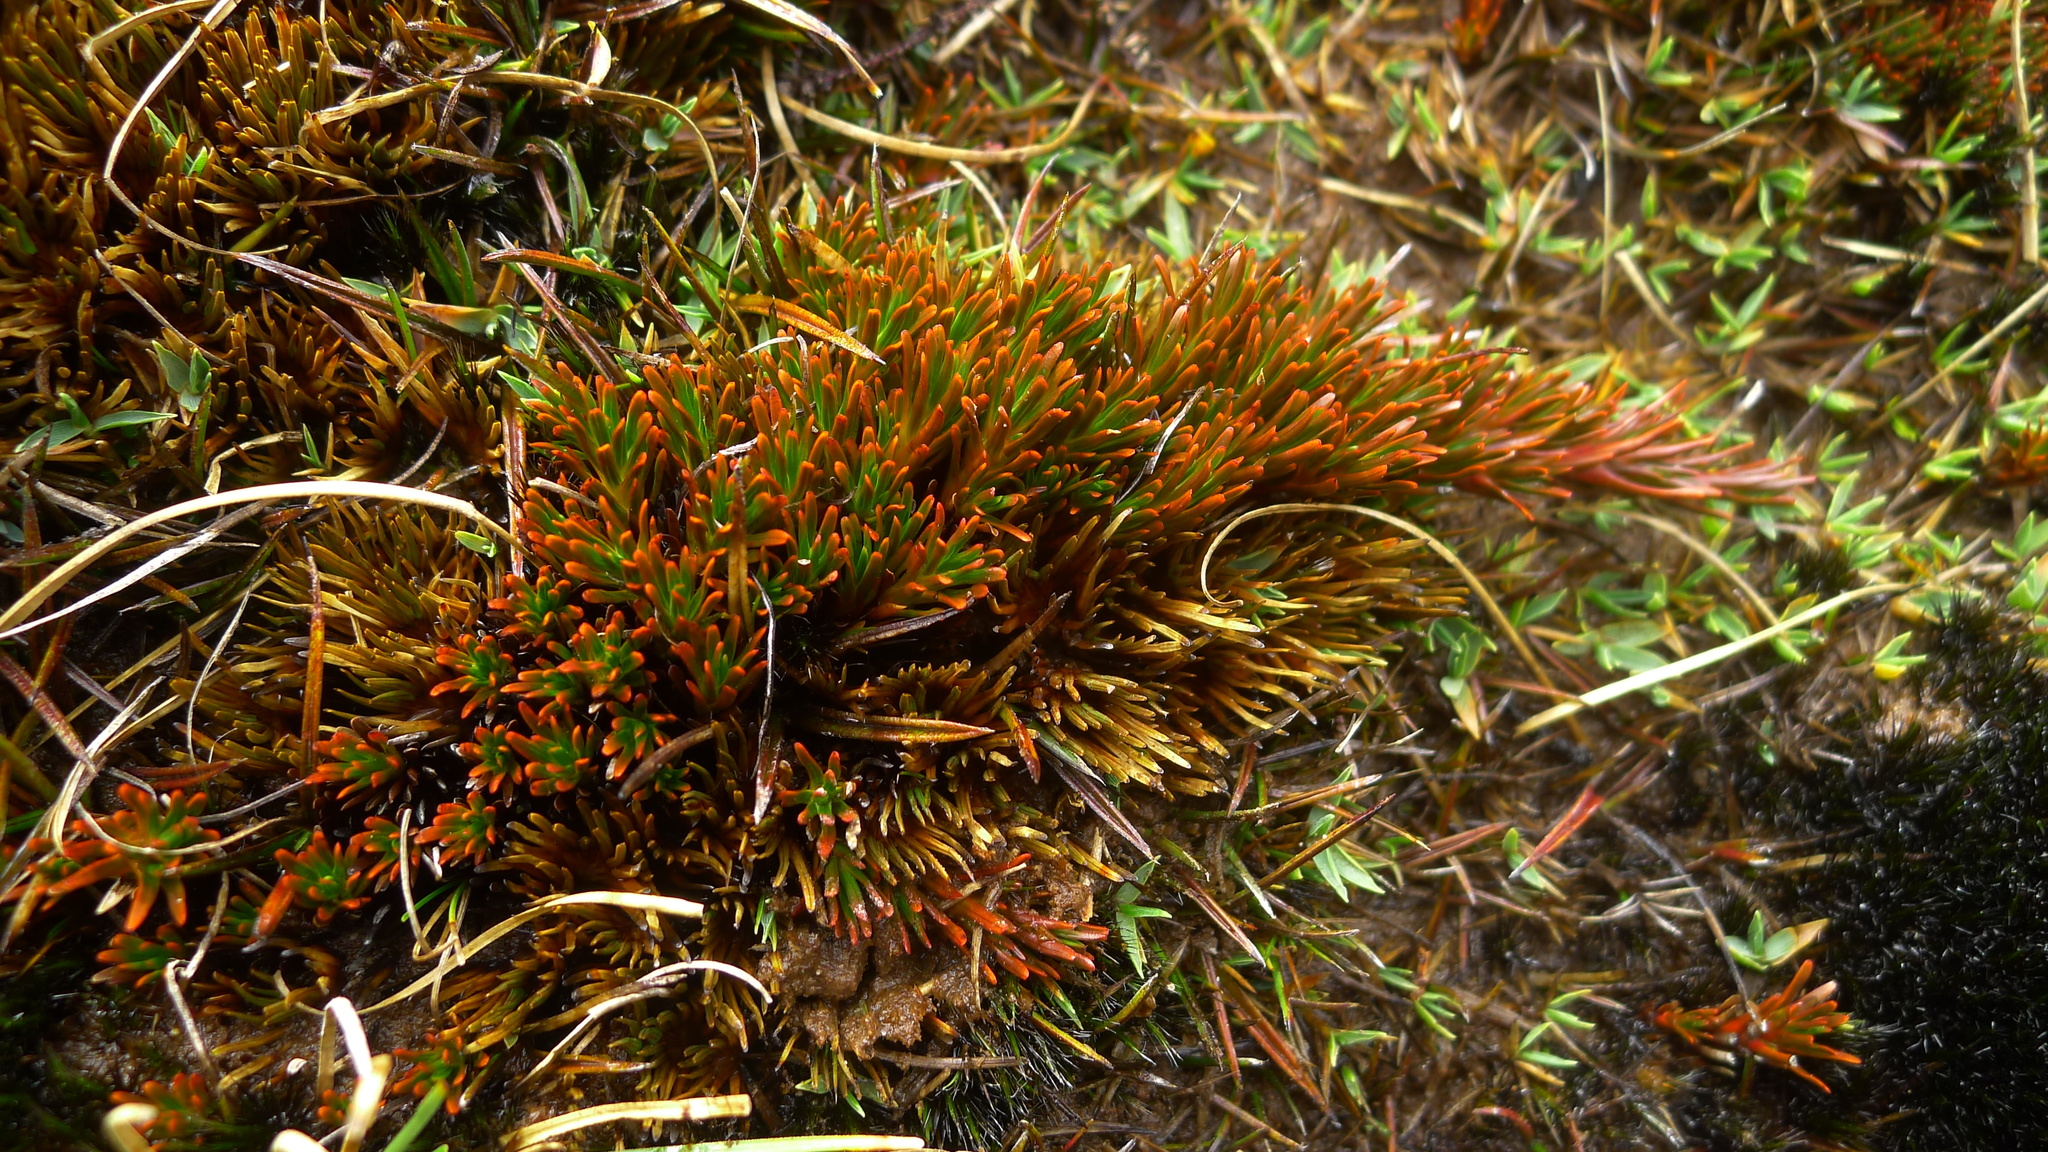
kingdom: Plantae
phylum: Tracheophyta
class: Magnoliopsida
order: Ericales
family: Ericaceae
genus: Dracophyllum
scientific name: Dracophyllum politum
